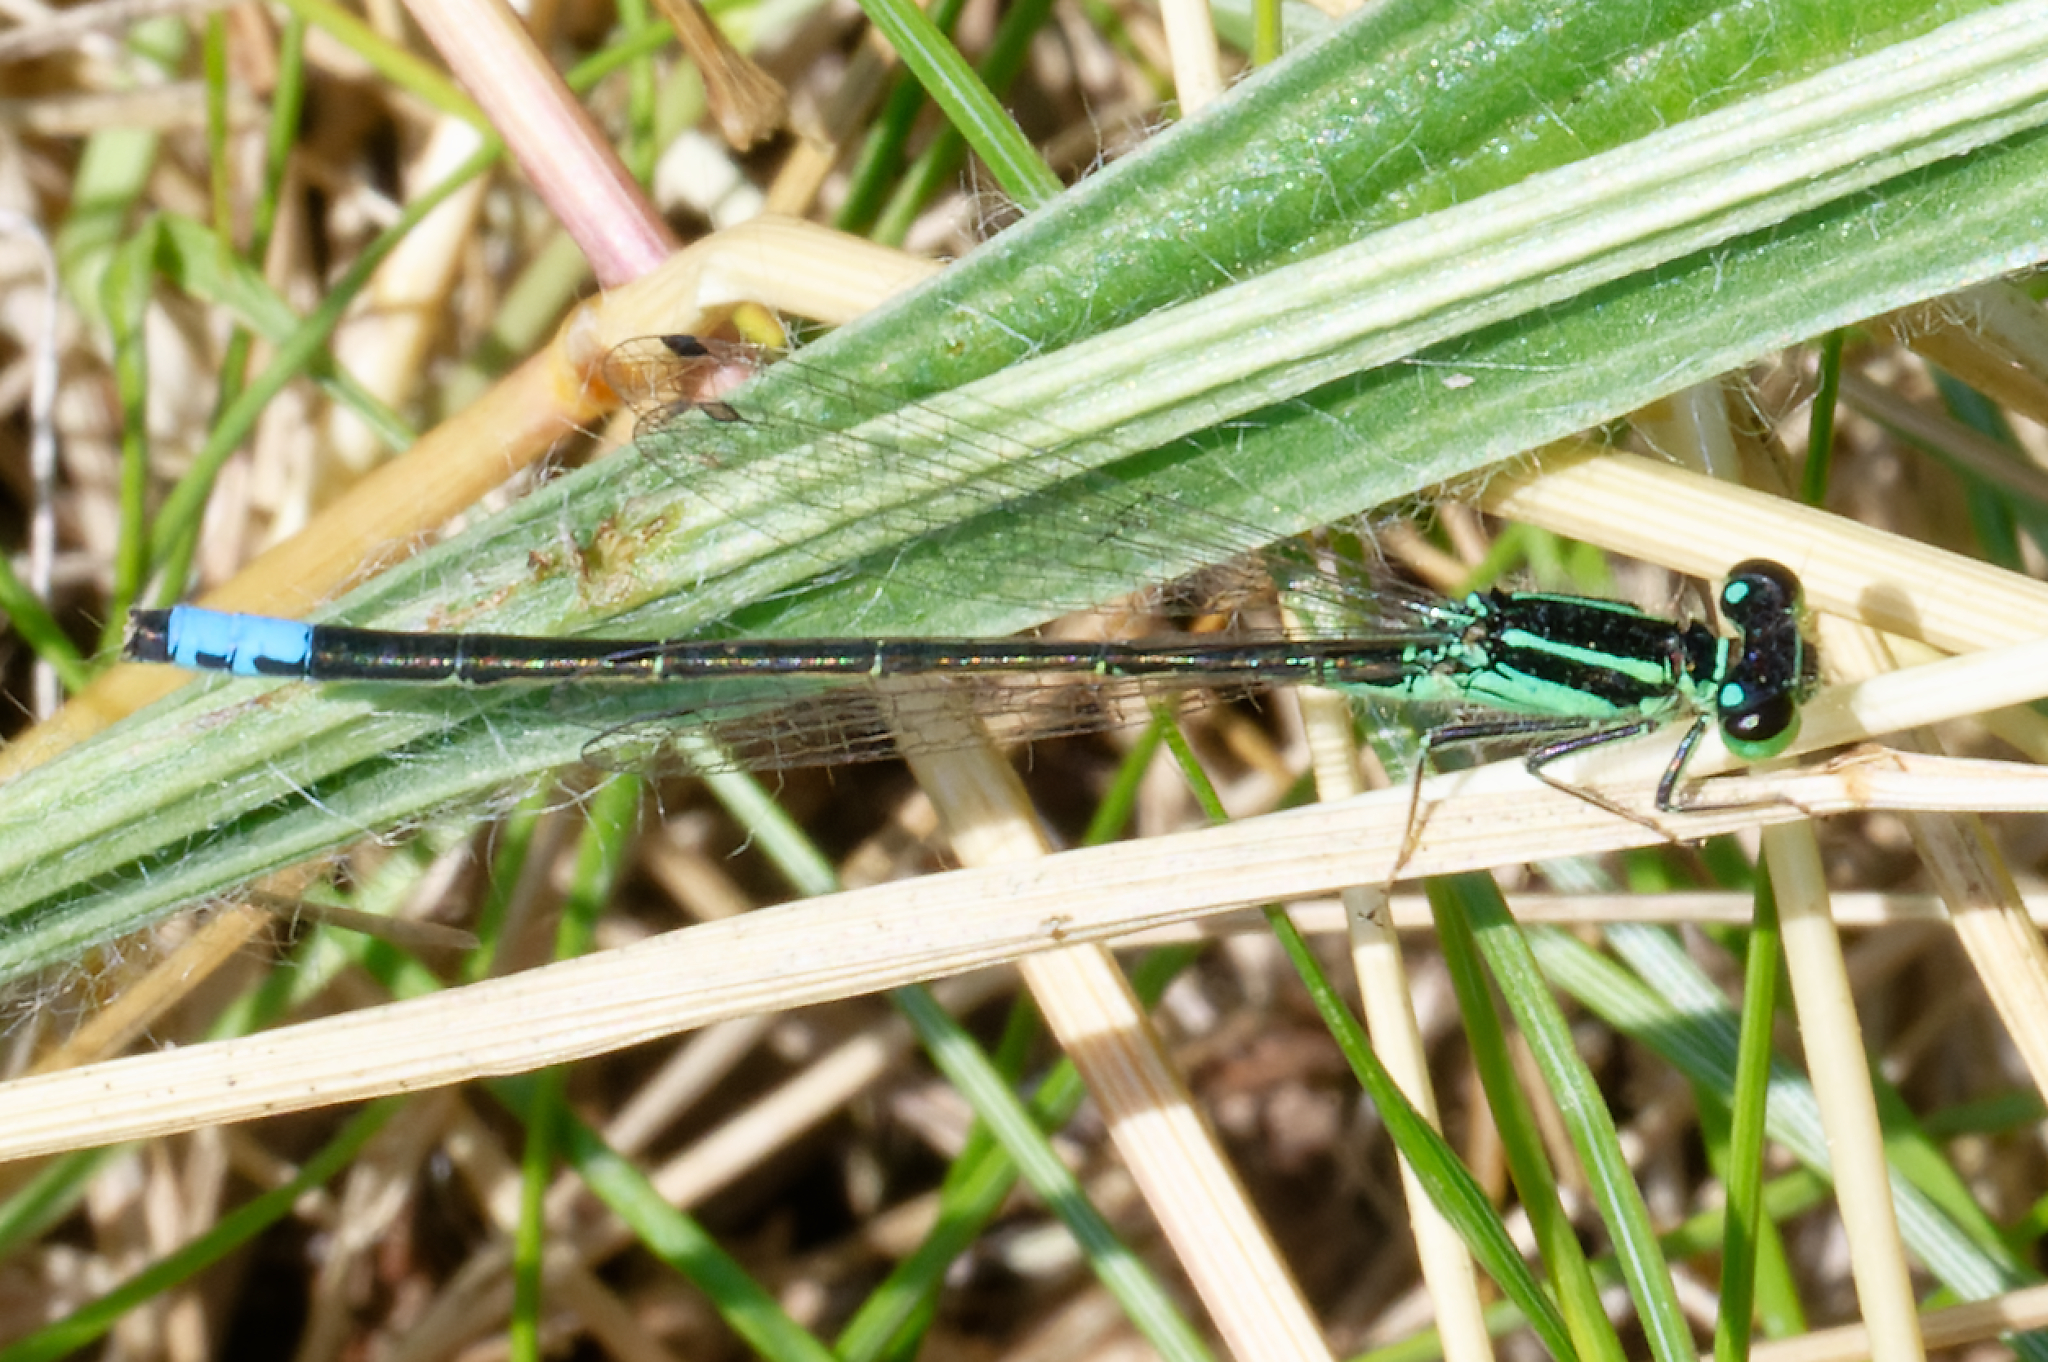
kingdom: Animalia
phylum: Arthropoda
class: Insecta
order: Odonata
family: Coenagrionidae
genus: Ischnura
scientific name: Ischnura verticalis
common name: Eastern forktail
